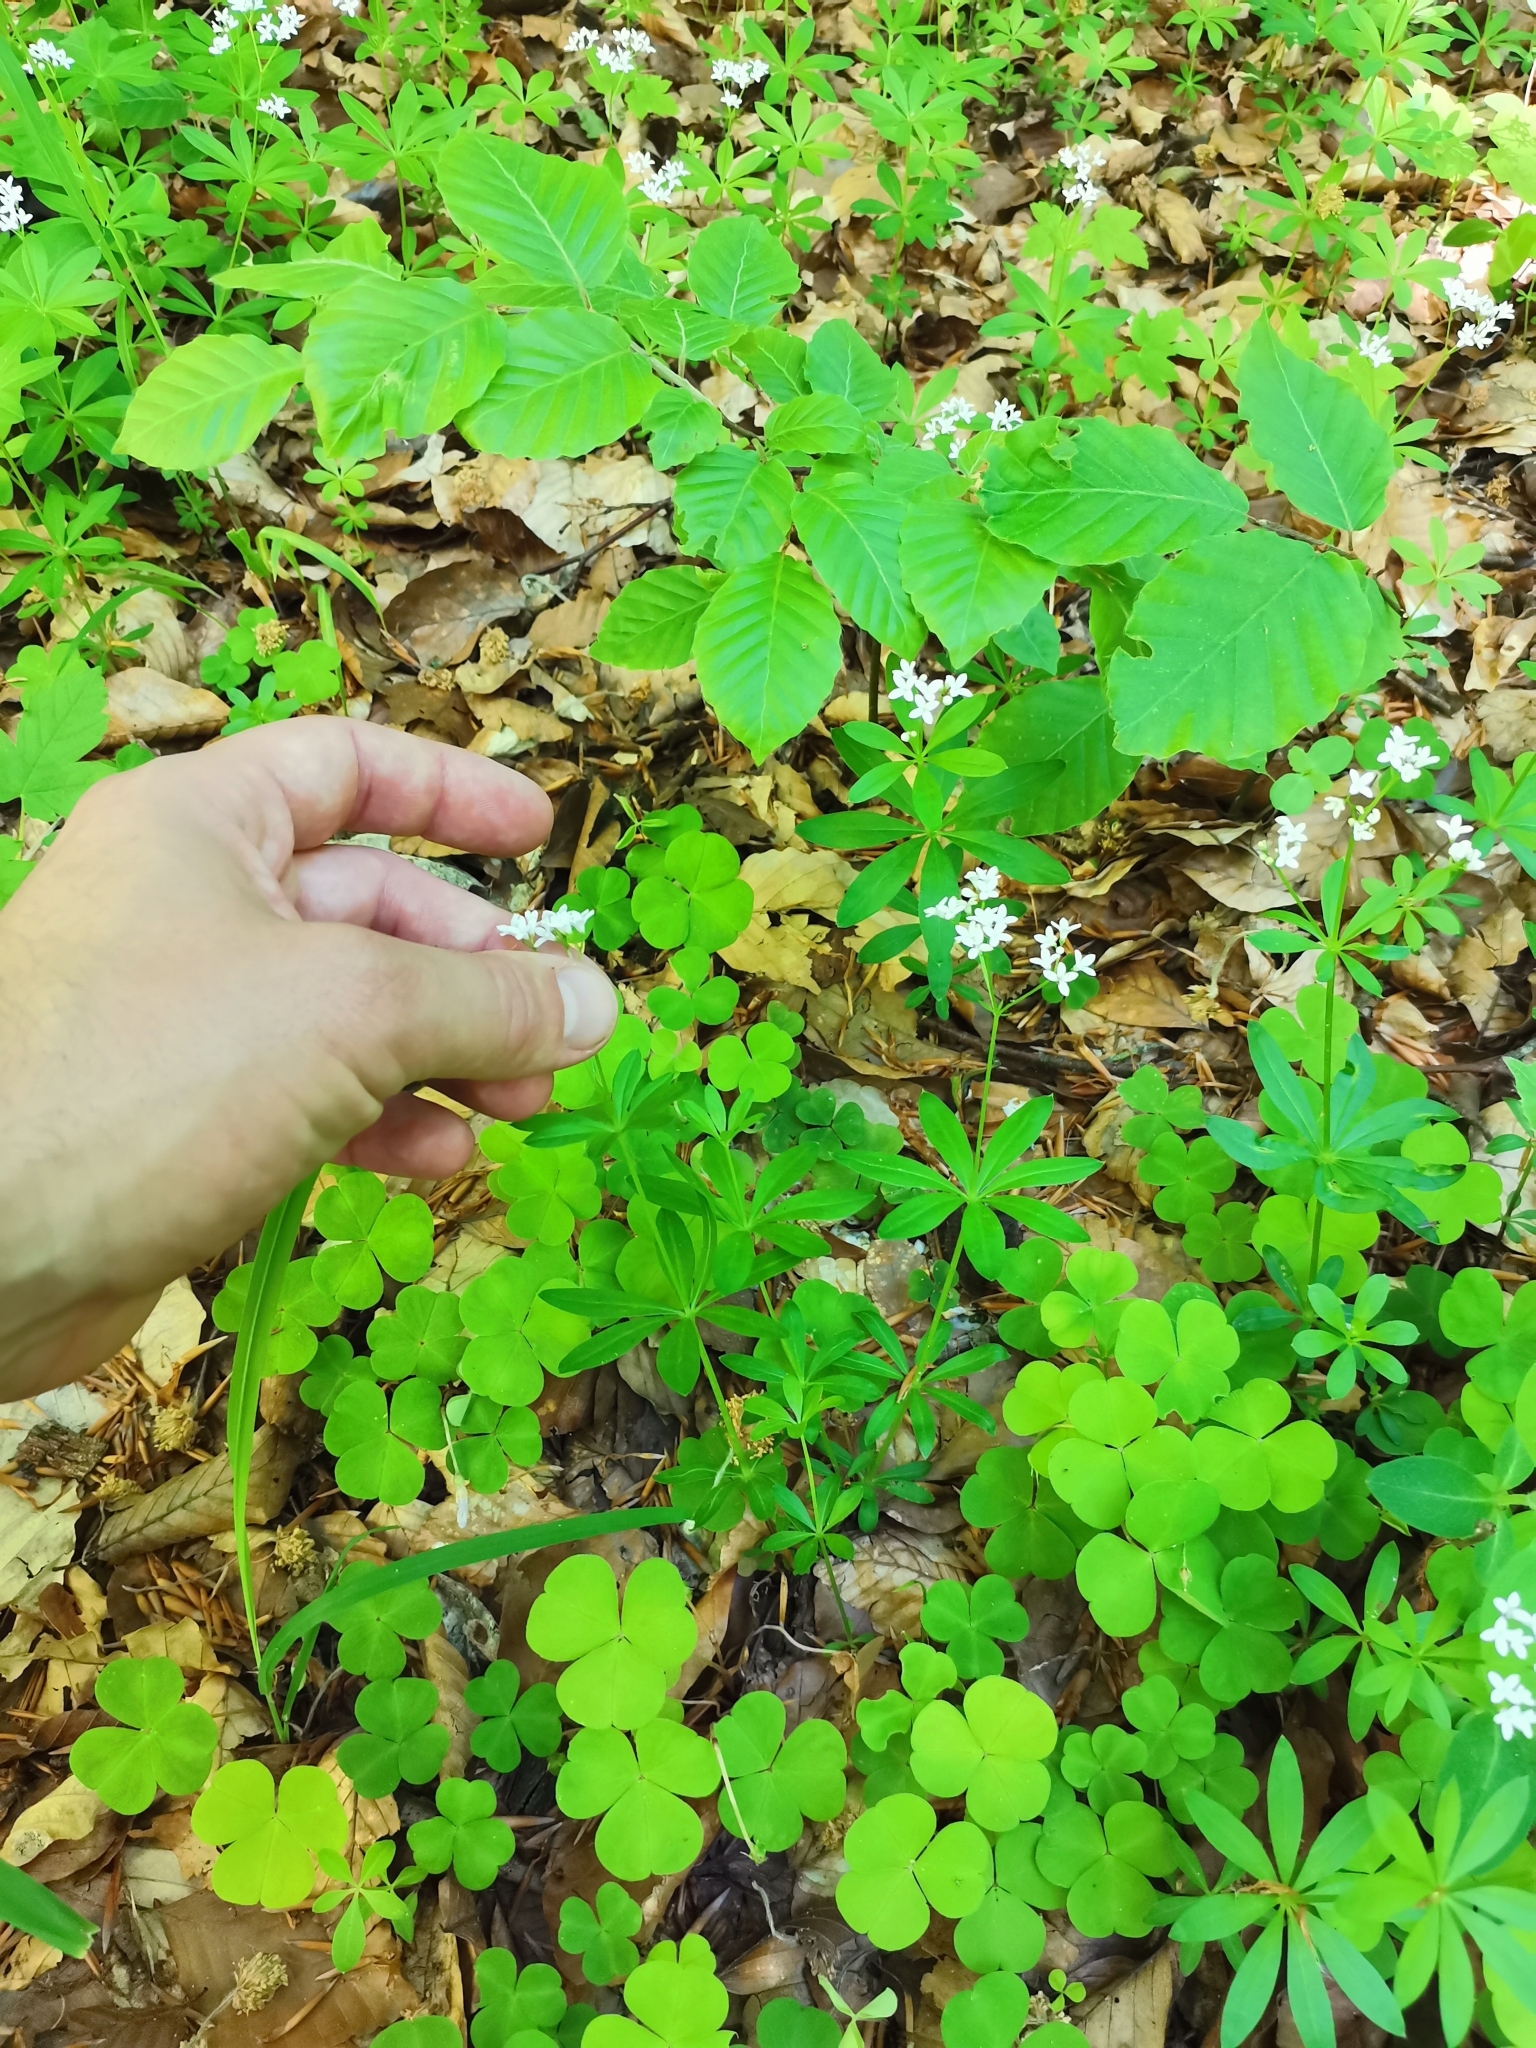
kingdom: Plantae
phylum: Tracheophyta
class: Magnoliopsida
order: Gentianales
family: Rubiaceae
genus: Galium
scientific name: Galium odoratum
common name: Sweet woodruff
